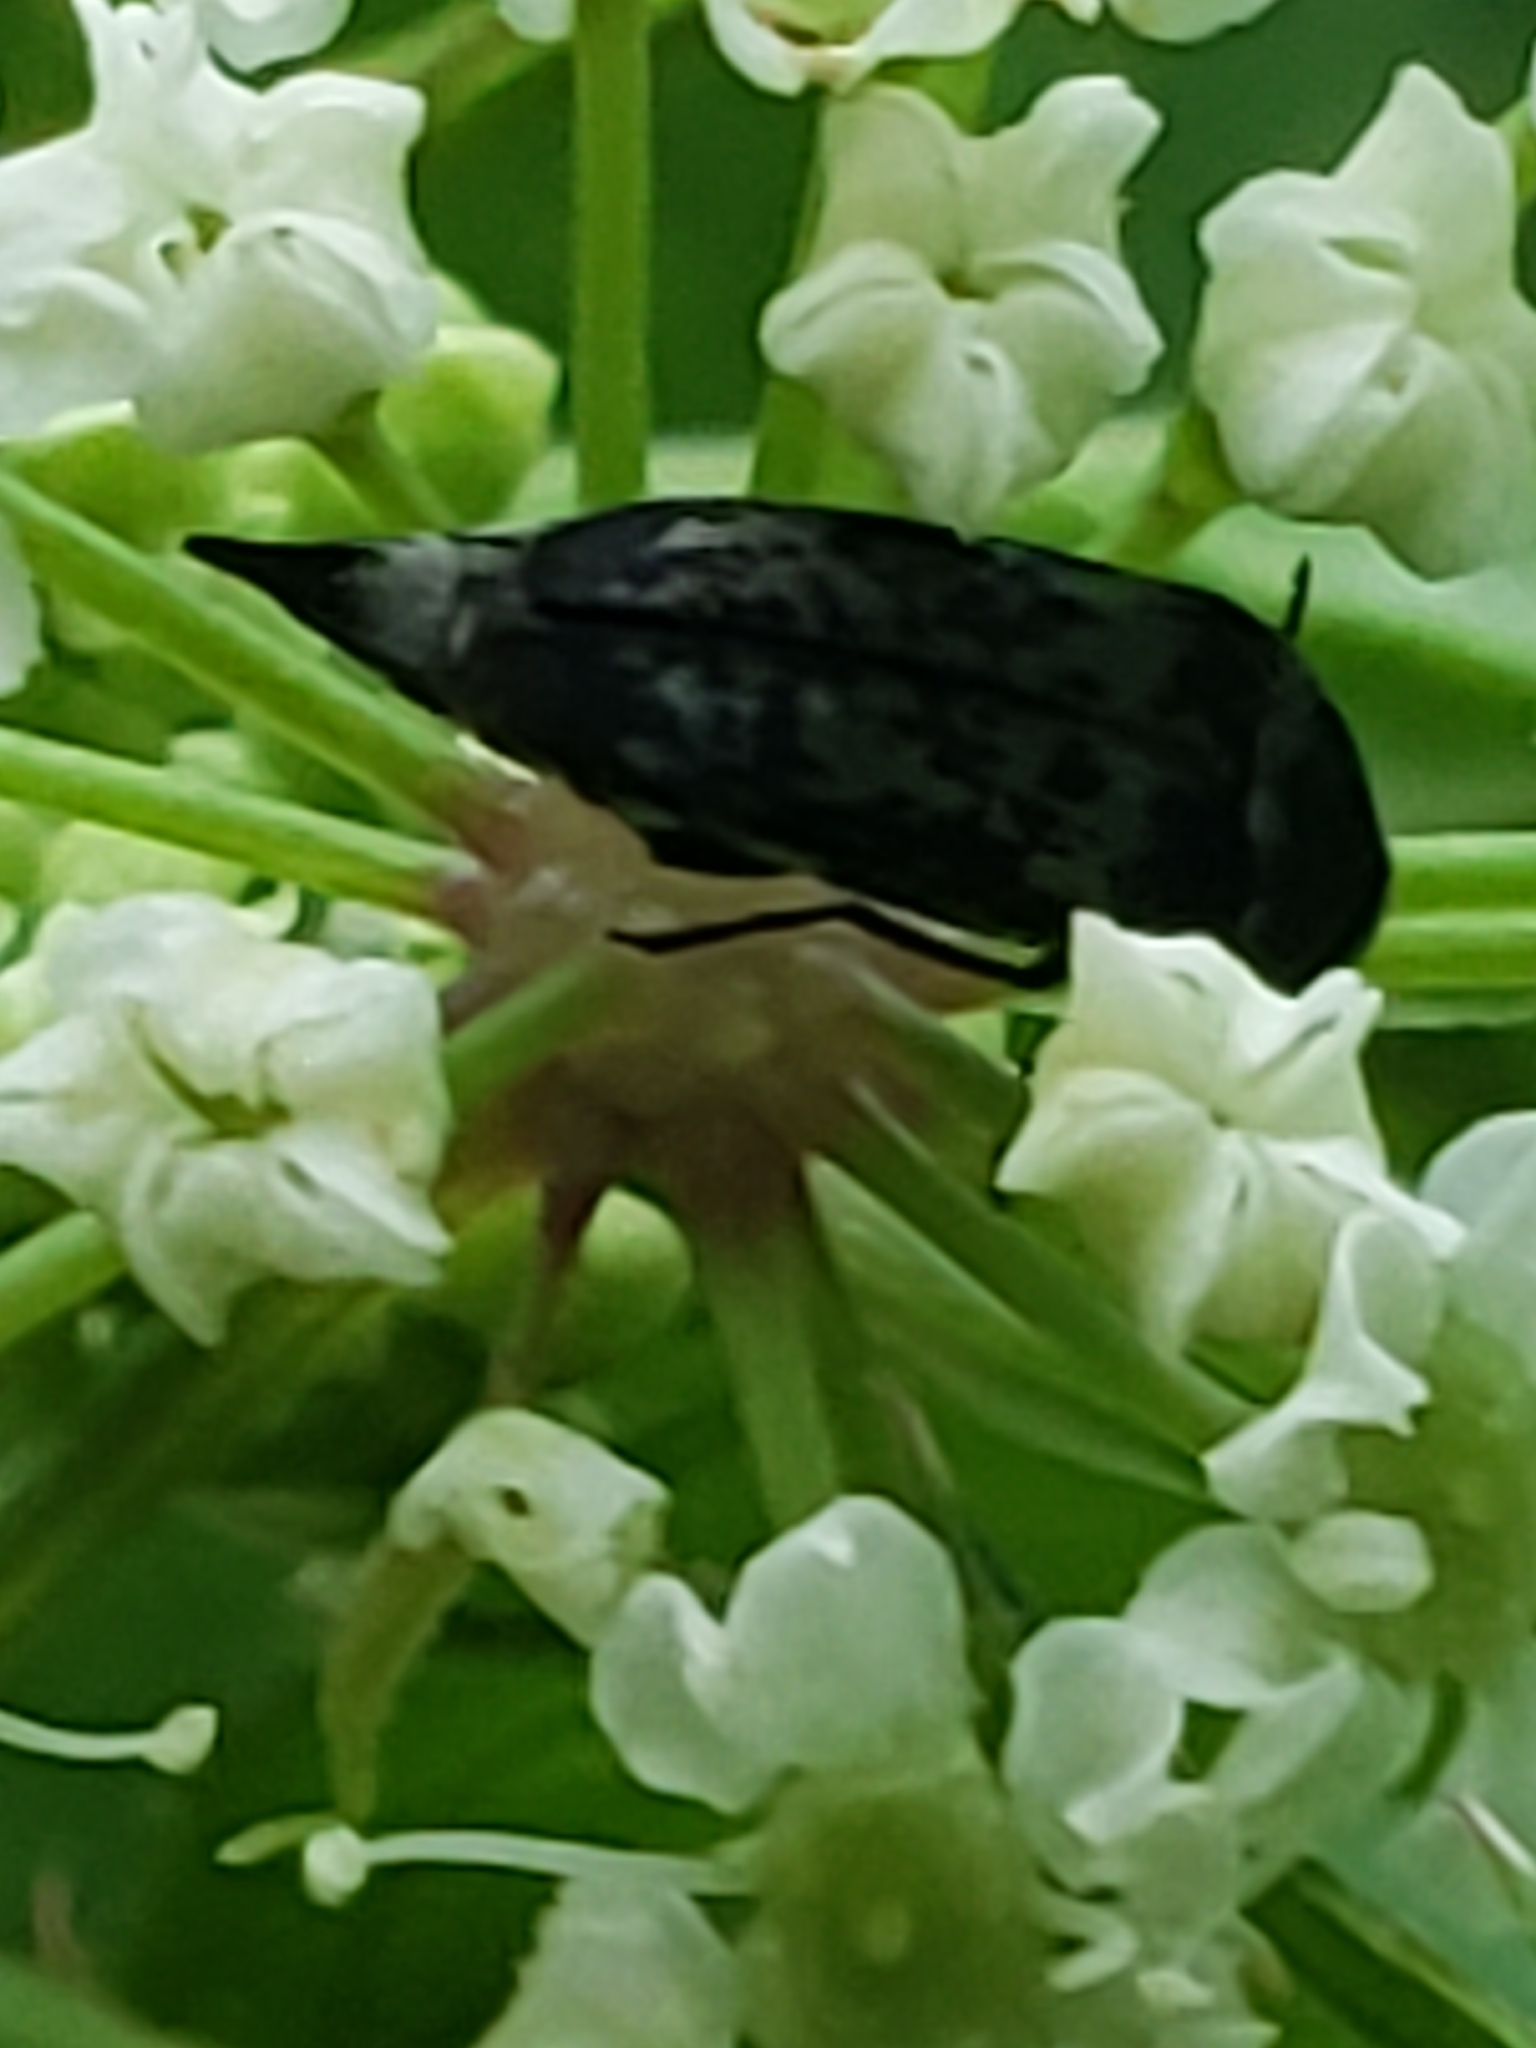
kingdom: Animalia
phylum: Arthropoda
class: Insecta
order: Coleoptera
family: Mordellidae
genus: Mordella
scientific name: Mordella marginata
